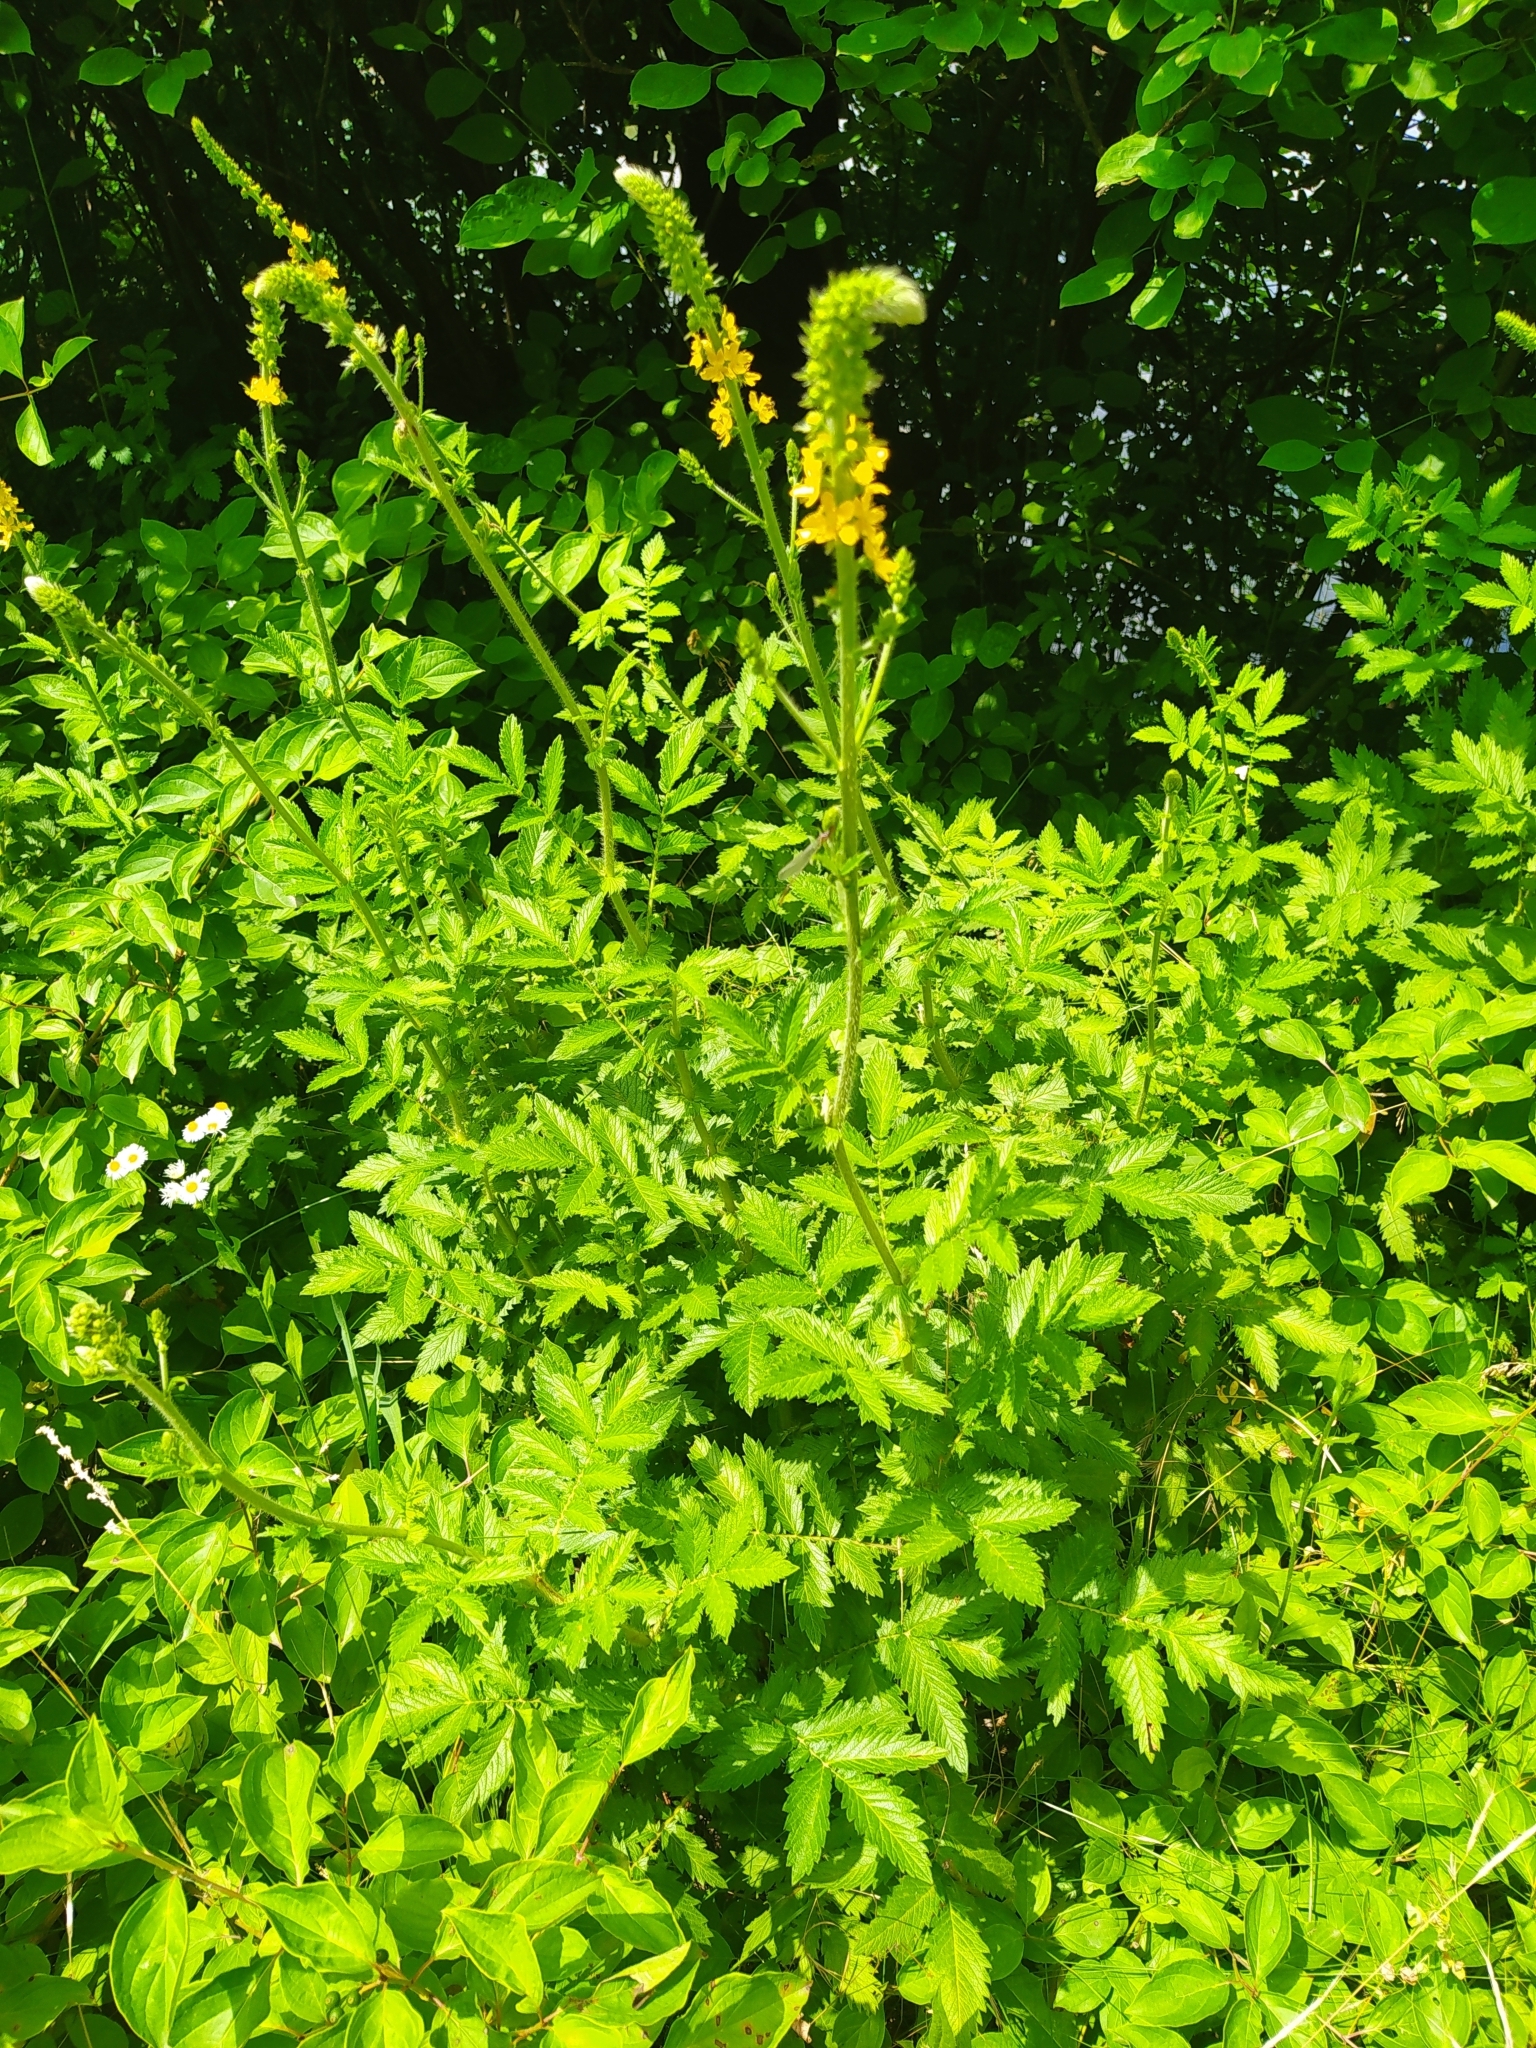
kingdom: Plantae
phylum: Tracheophyta
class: Magnoliopsida
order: Rosales
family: Rosaceae
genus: Agrimonia
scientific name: Agrimonia eupatoria
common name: Agrimony
